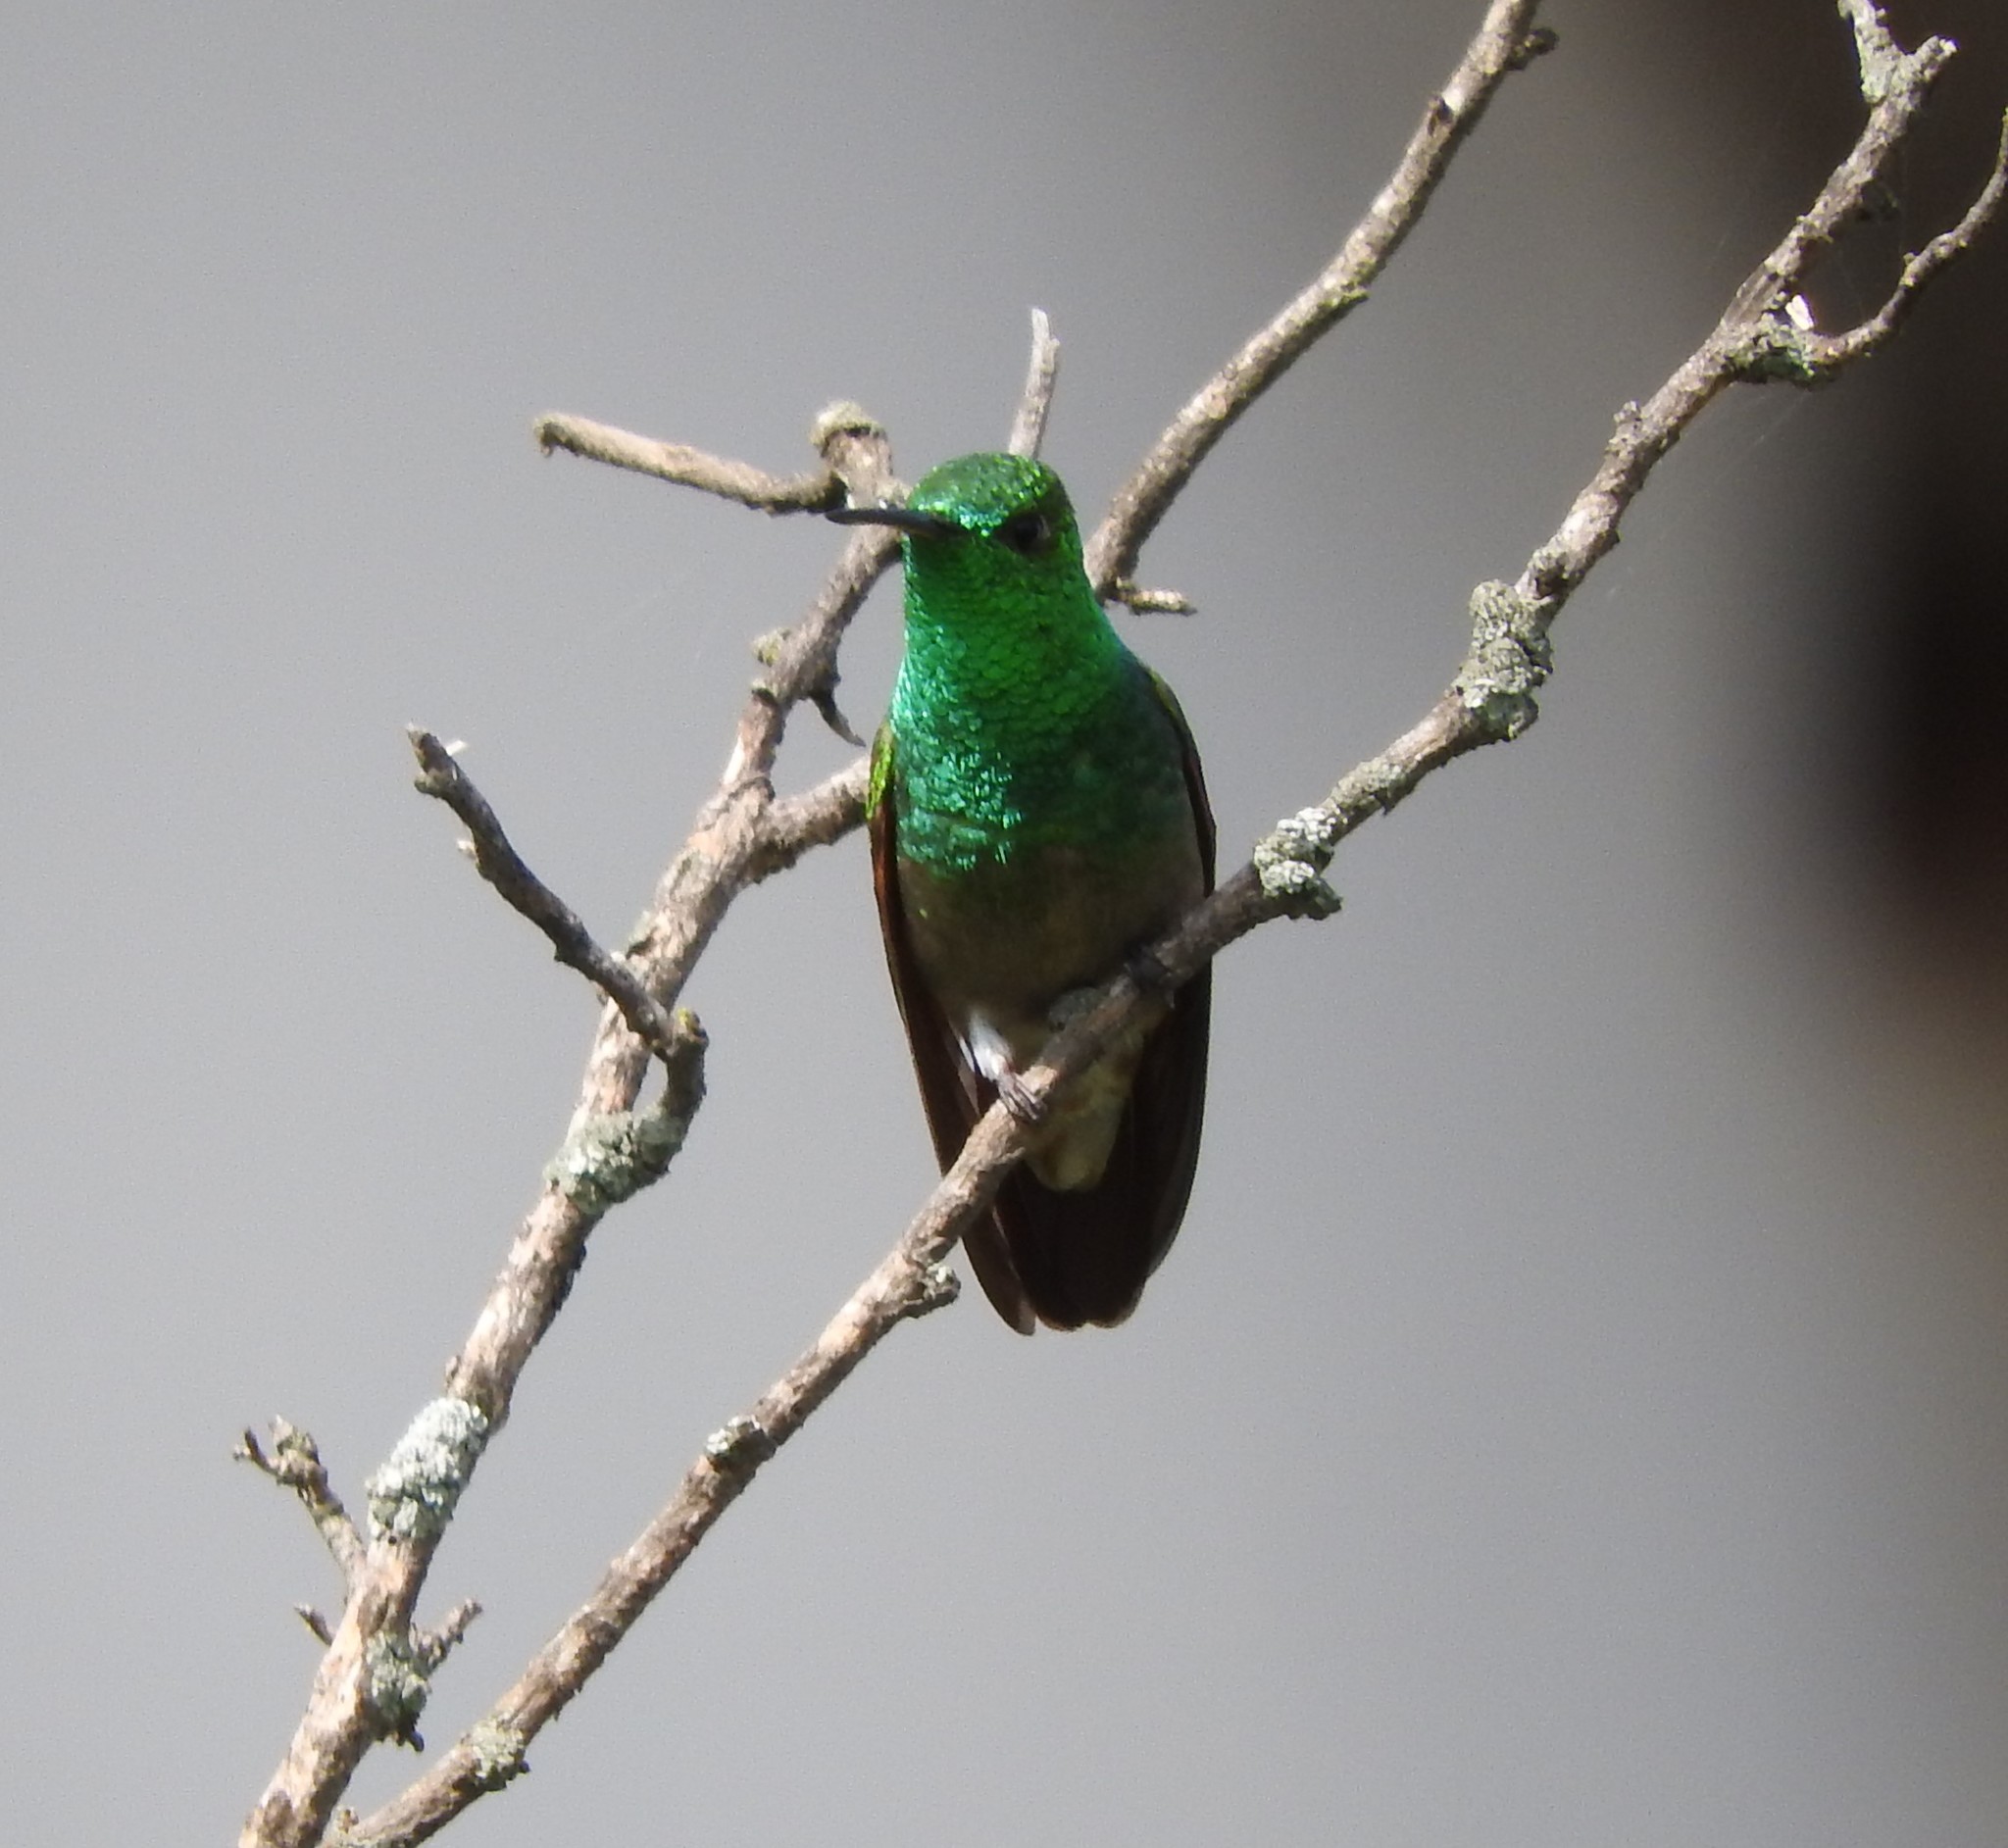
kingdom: Animalia
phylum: Chordata
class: Aves
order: Apodiformes
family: Trochilidae
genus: Saucerottia
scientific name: Saucerottia beryllina
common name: Berylline hummingbird
